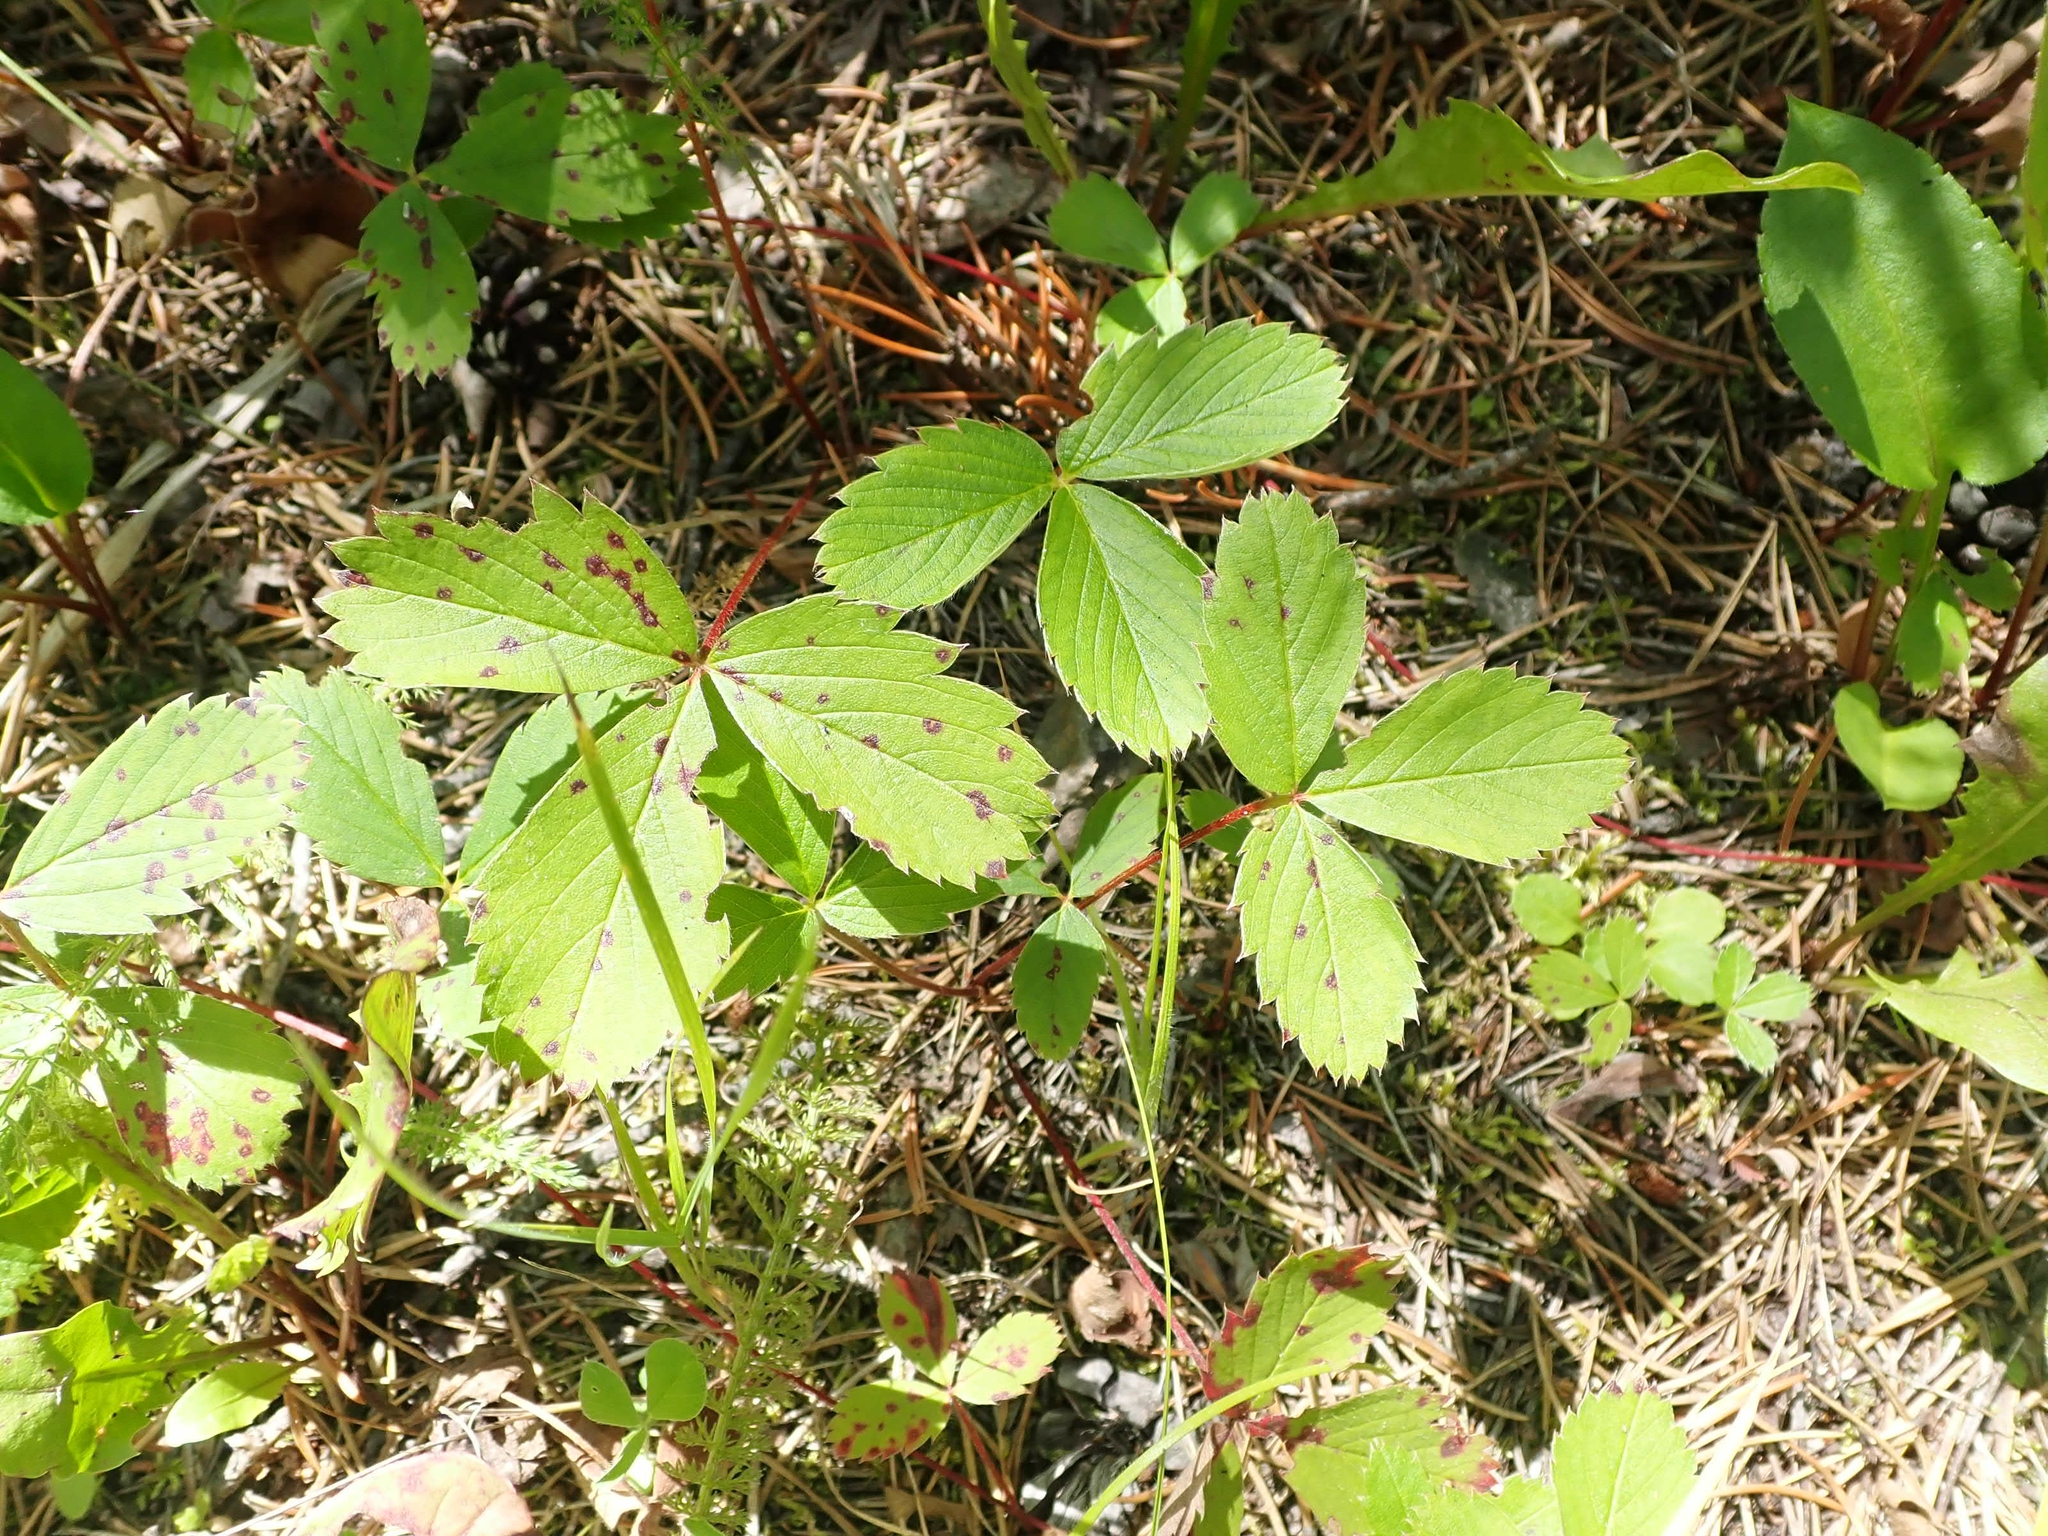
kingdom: Plantae
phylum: Tracheophyta
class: Magnoliopsida
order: Rosales
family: Rosaceae
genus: Fragaria
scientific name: Fragaria virginiana
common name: Thickleaved wild strawberry
